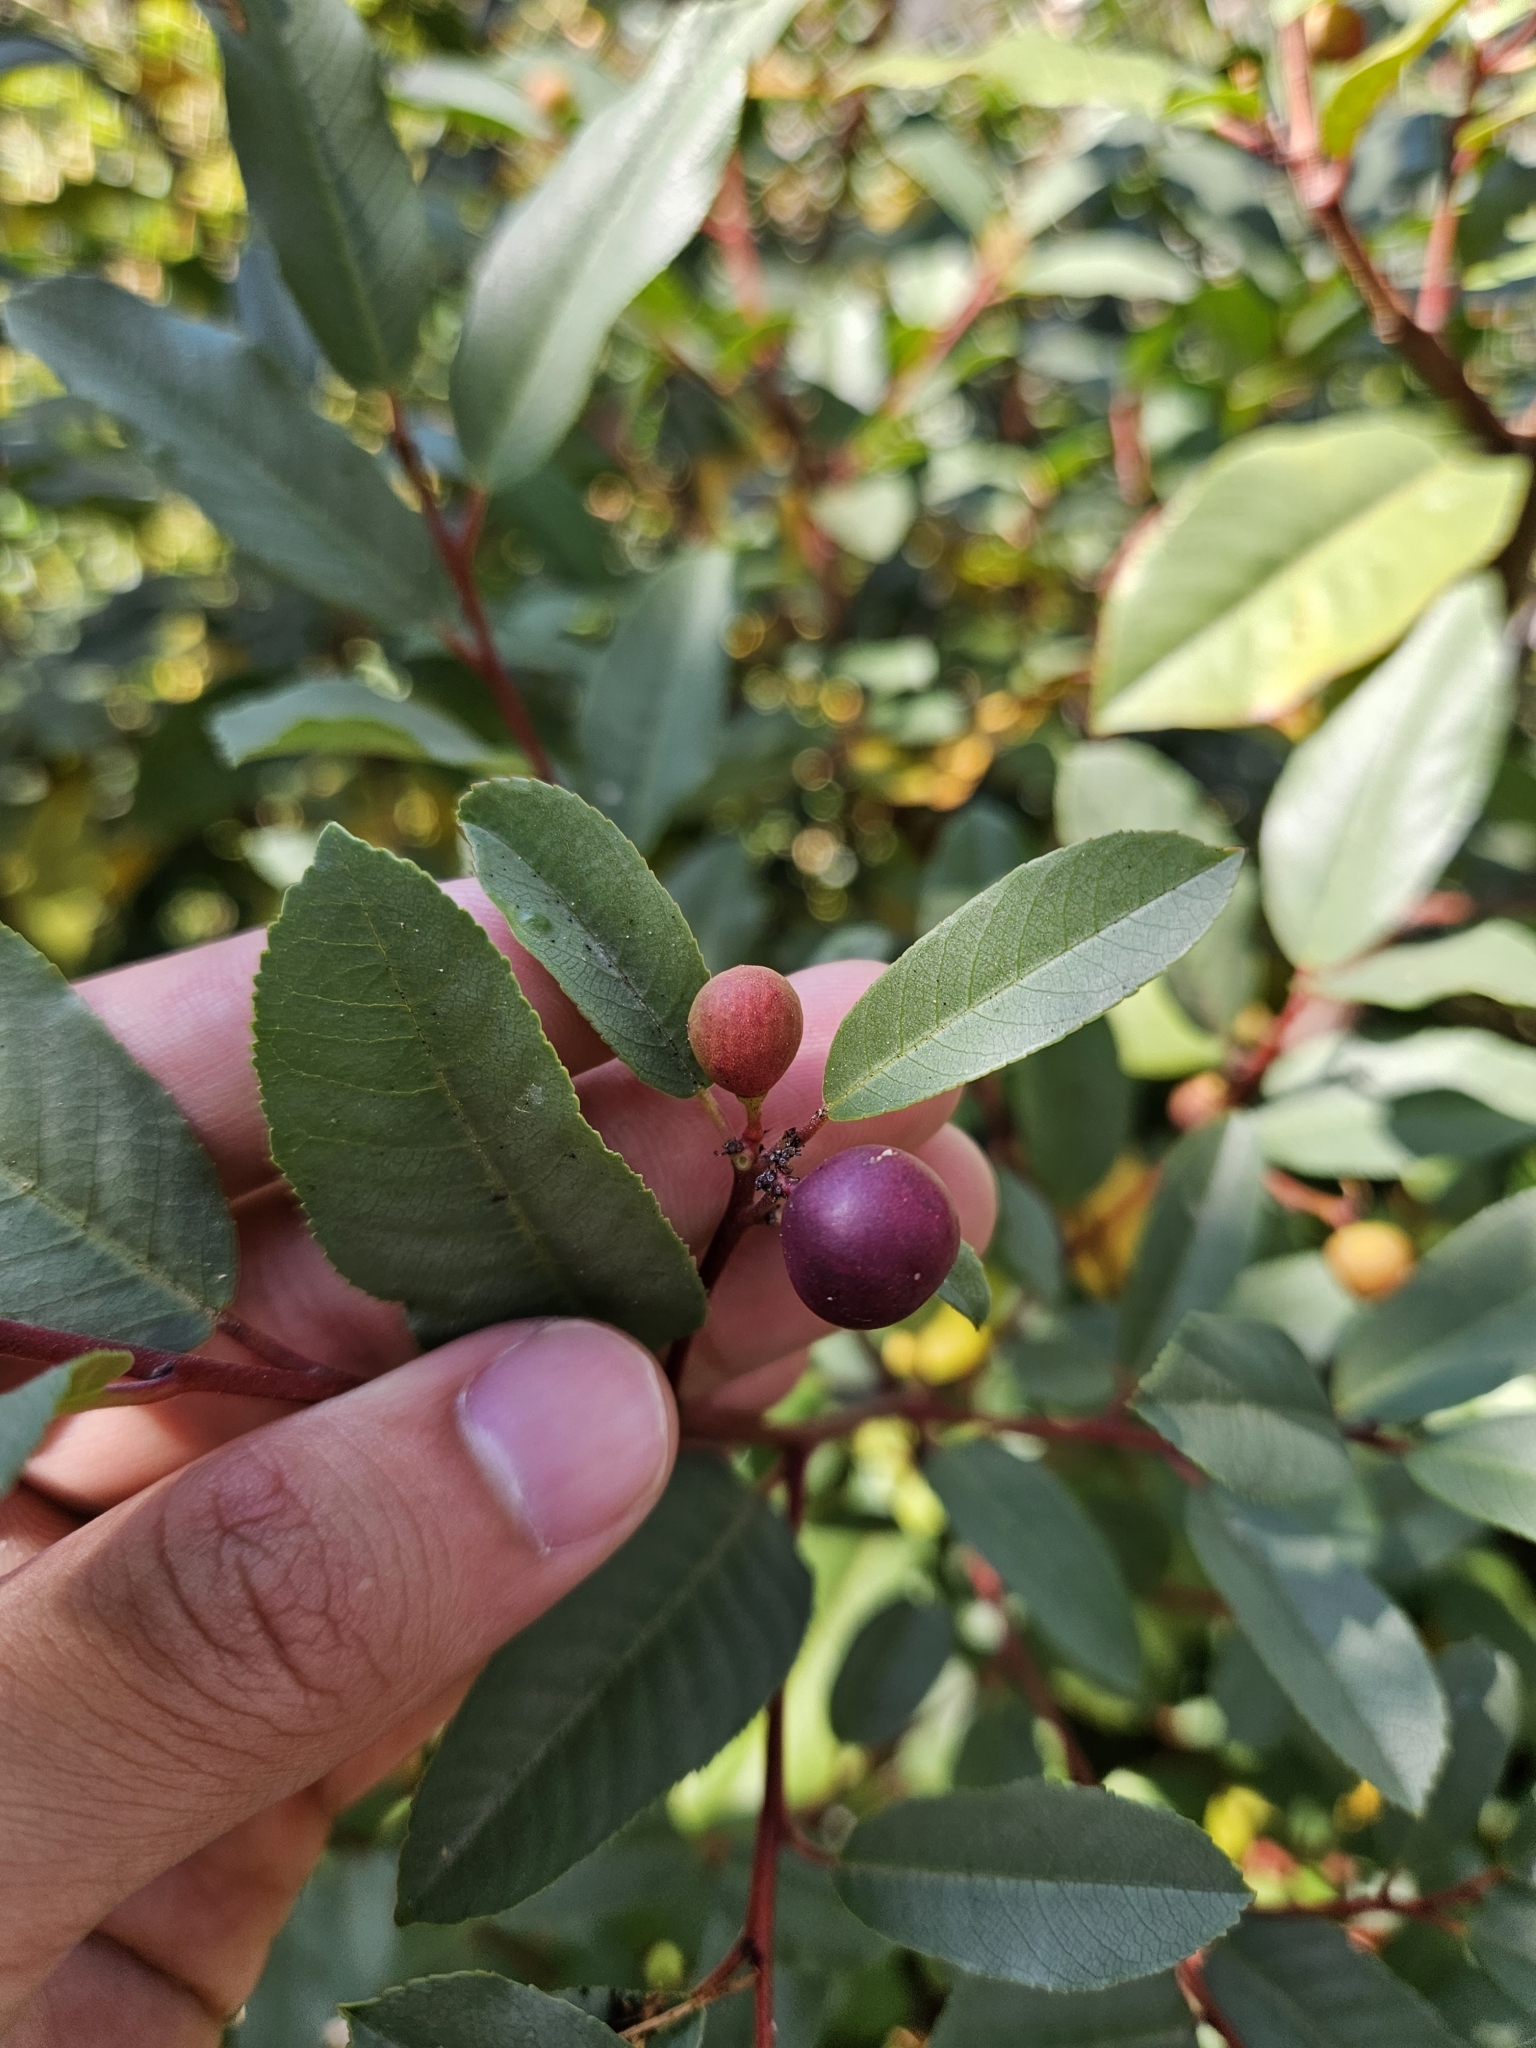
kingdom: Plantae
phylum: Tracheophyta
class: Magnoliopsida
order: Rosales
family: Rhamnaceae
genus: Frangula
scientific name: Frangula californica
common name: California buckthorn
